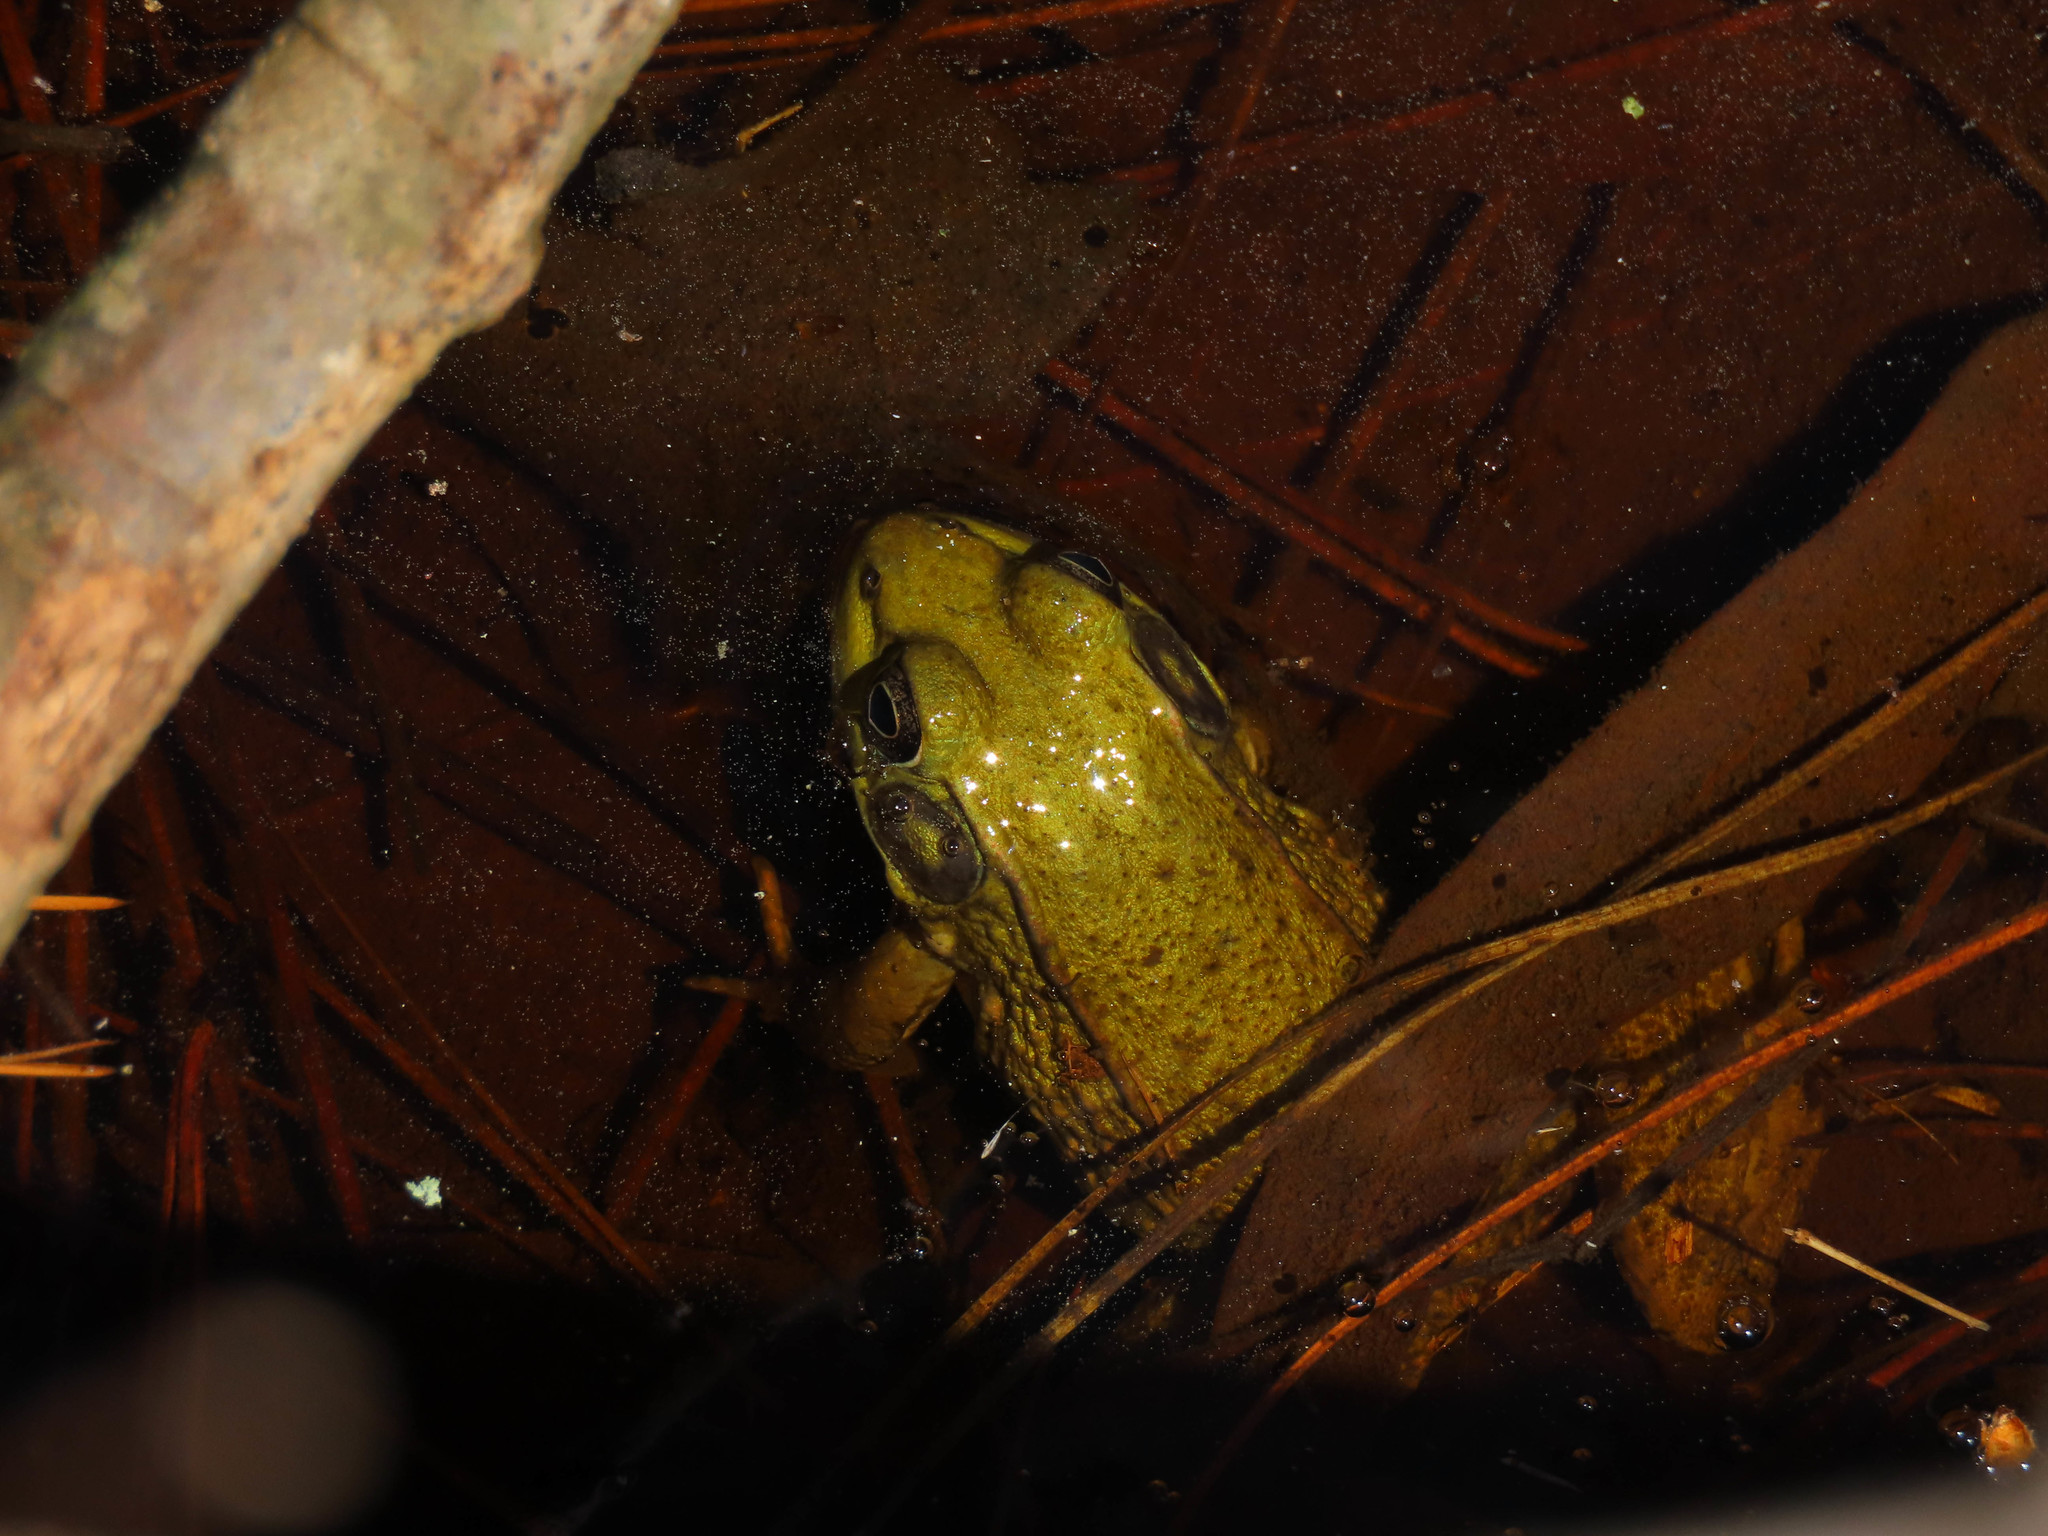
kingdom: Animalia
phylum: Chordata
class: Amphibia
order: Anura
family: Ranidae
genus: Lithobates
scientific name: Lithobates clamitans
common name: Green frog
